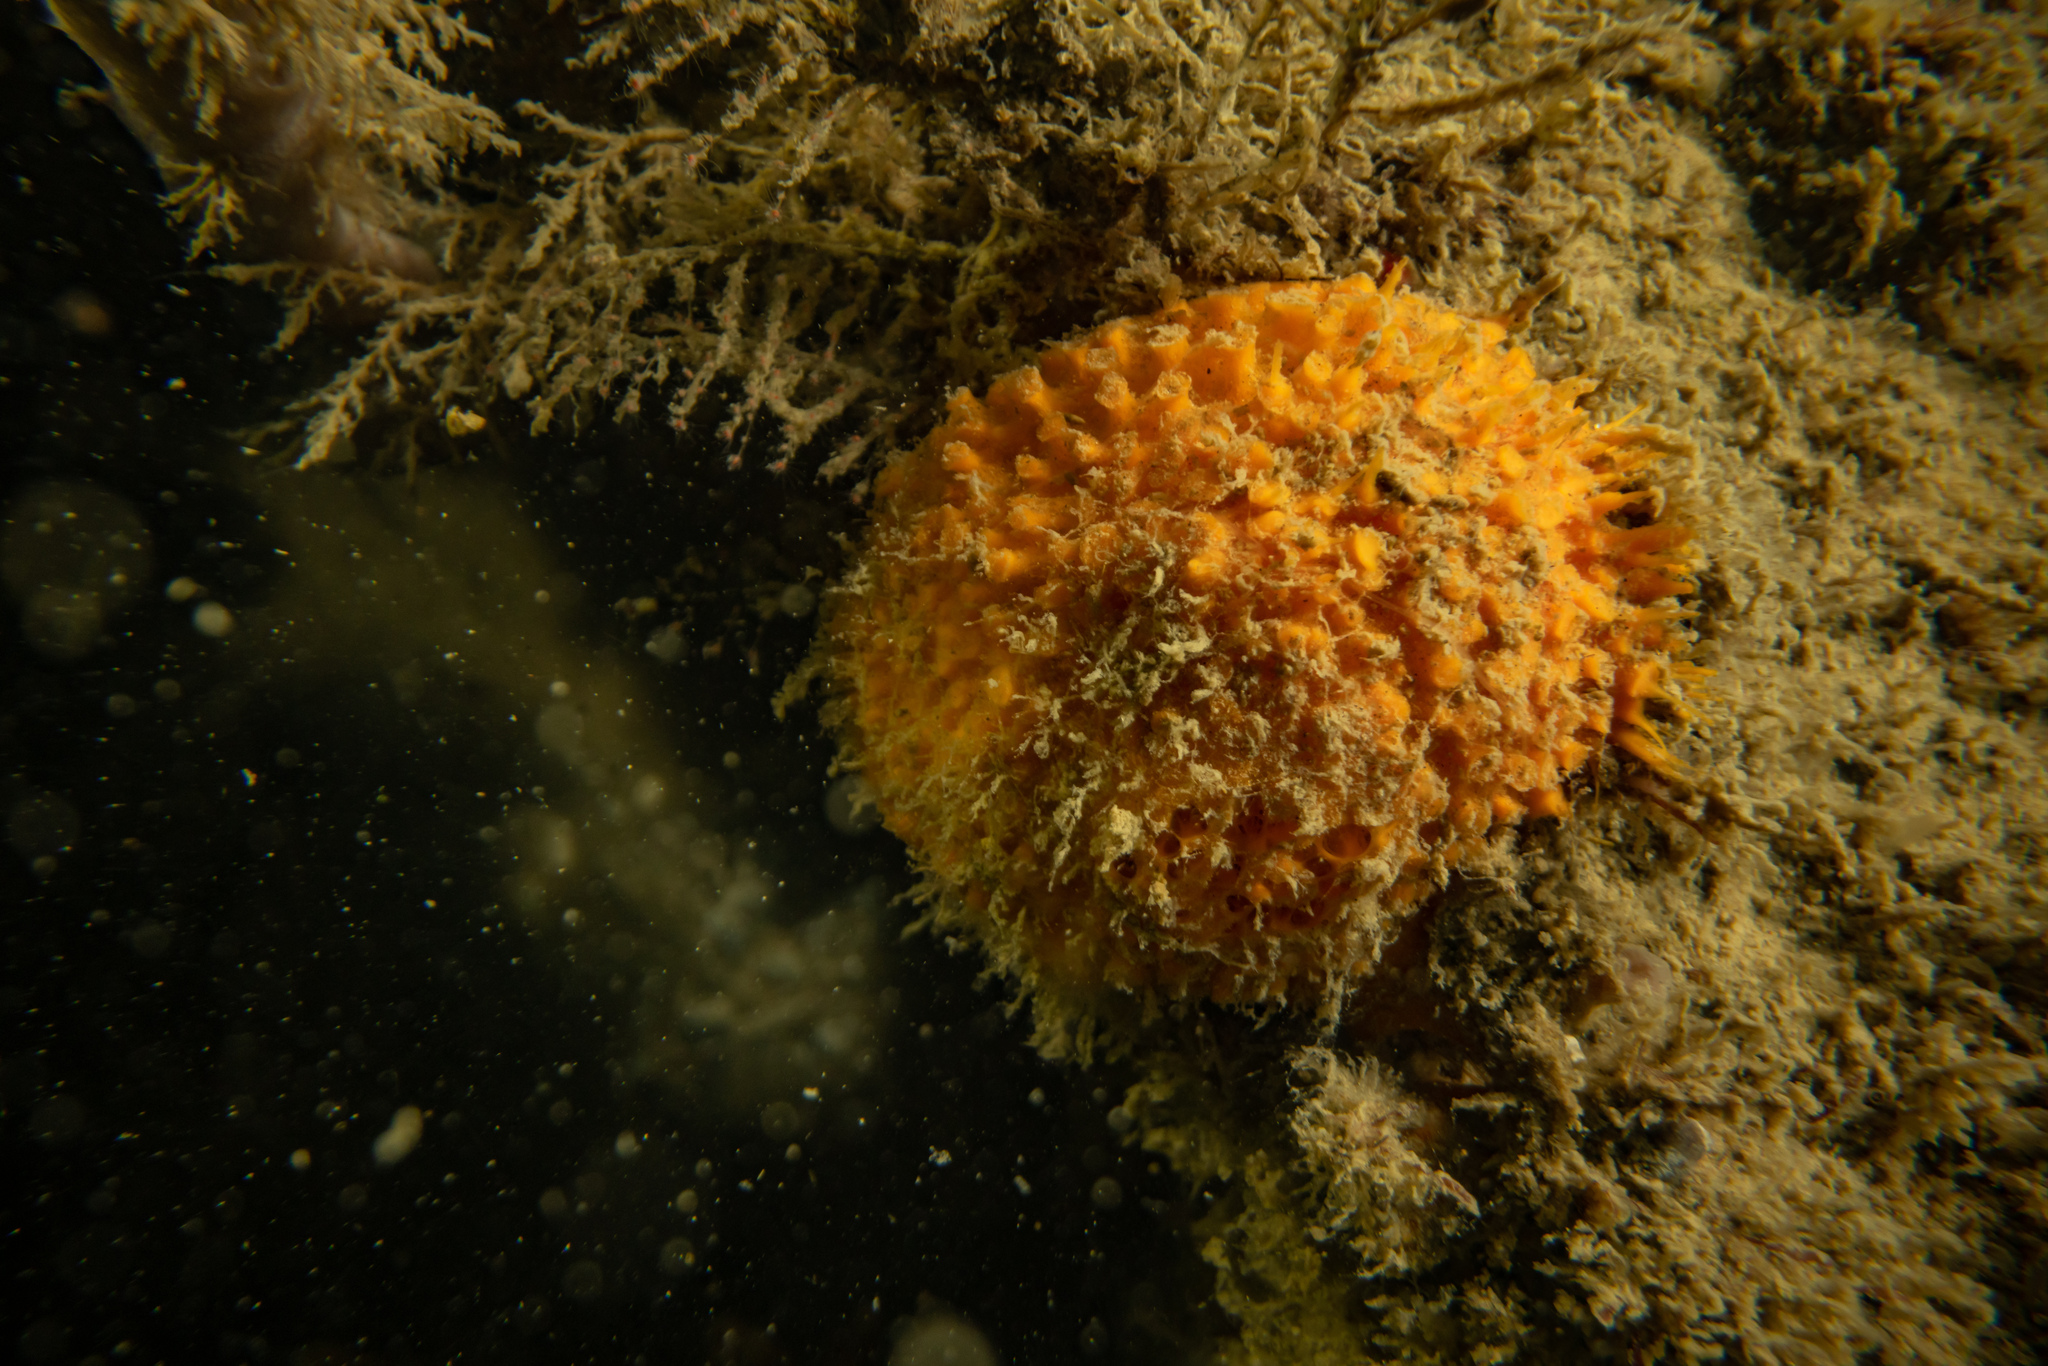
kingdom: Animalia
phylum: Porifera
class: Demospongiae
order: Tethyida
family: Tethyidae
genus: Tethya
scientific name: Tethya burtoni
